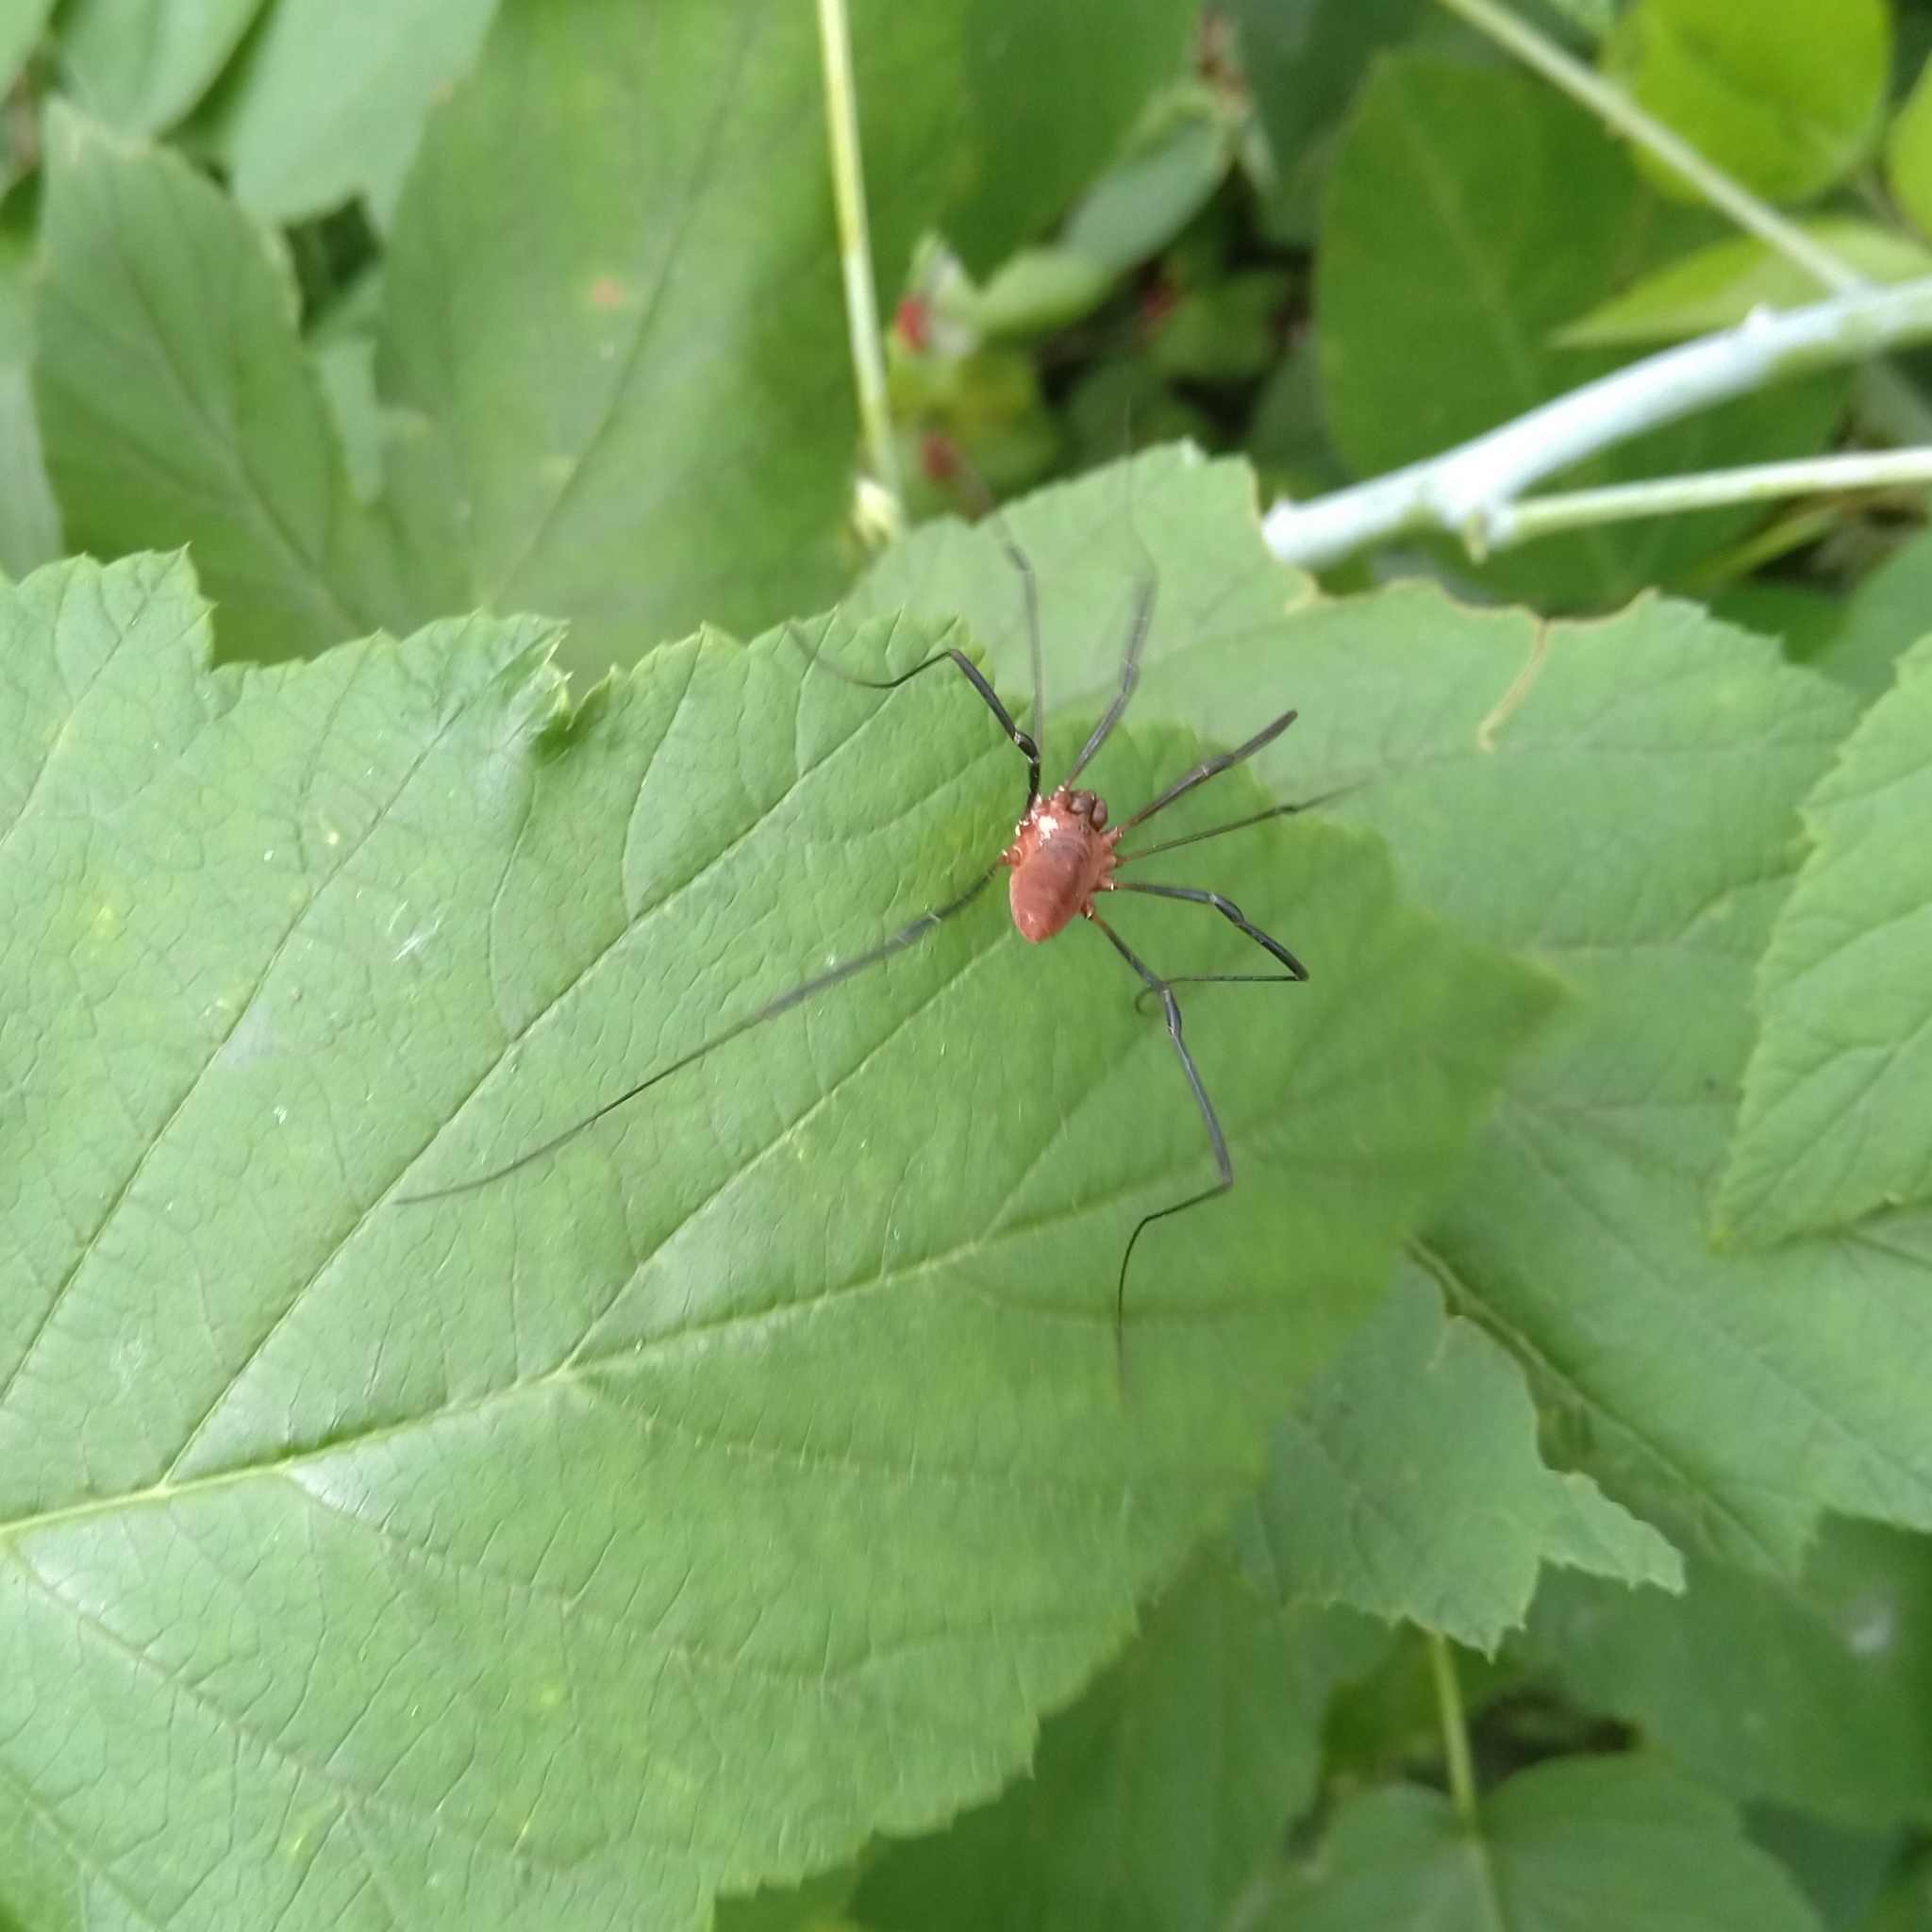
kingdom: Animalia
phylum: Arthropoda
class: Arachnida
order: Opiliones
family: Sclerosomatidae
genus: Leiobunum
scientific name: Leiobunum calcar
